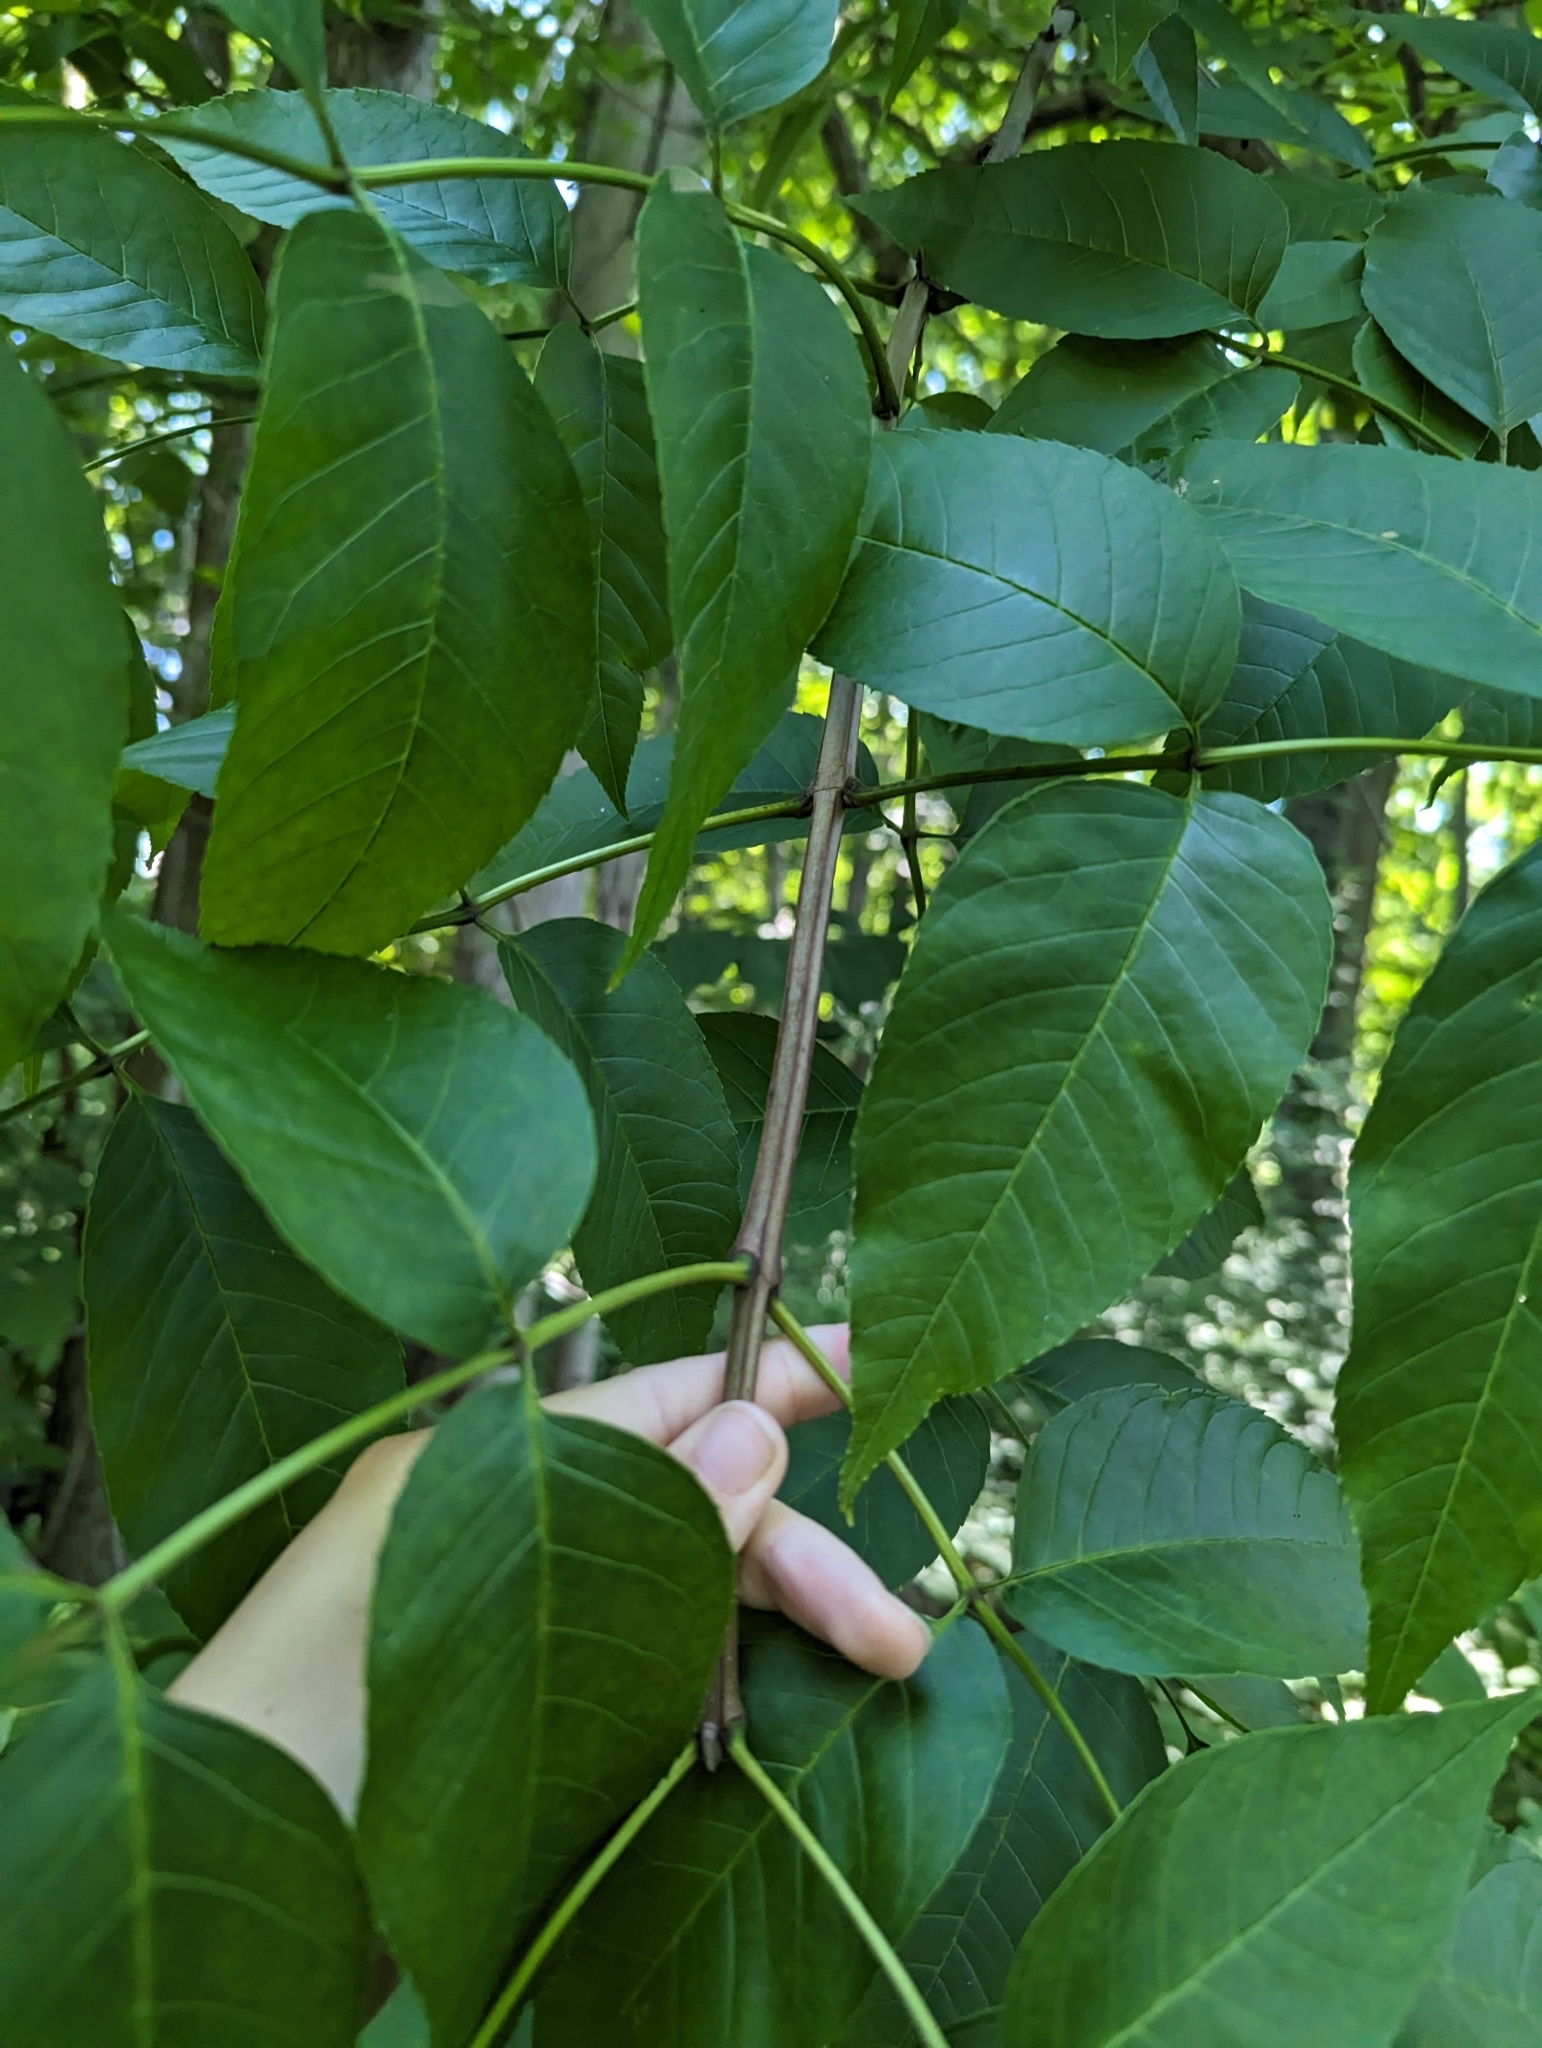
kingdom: Plantae
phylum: Tracheophyta
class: Magnoliopsida
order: Lamiales
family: Oleaceae
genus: Fraxinus
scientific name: Fraxinus quadrangulata
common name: Blue ash
